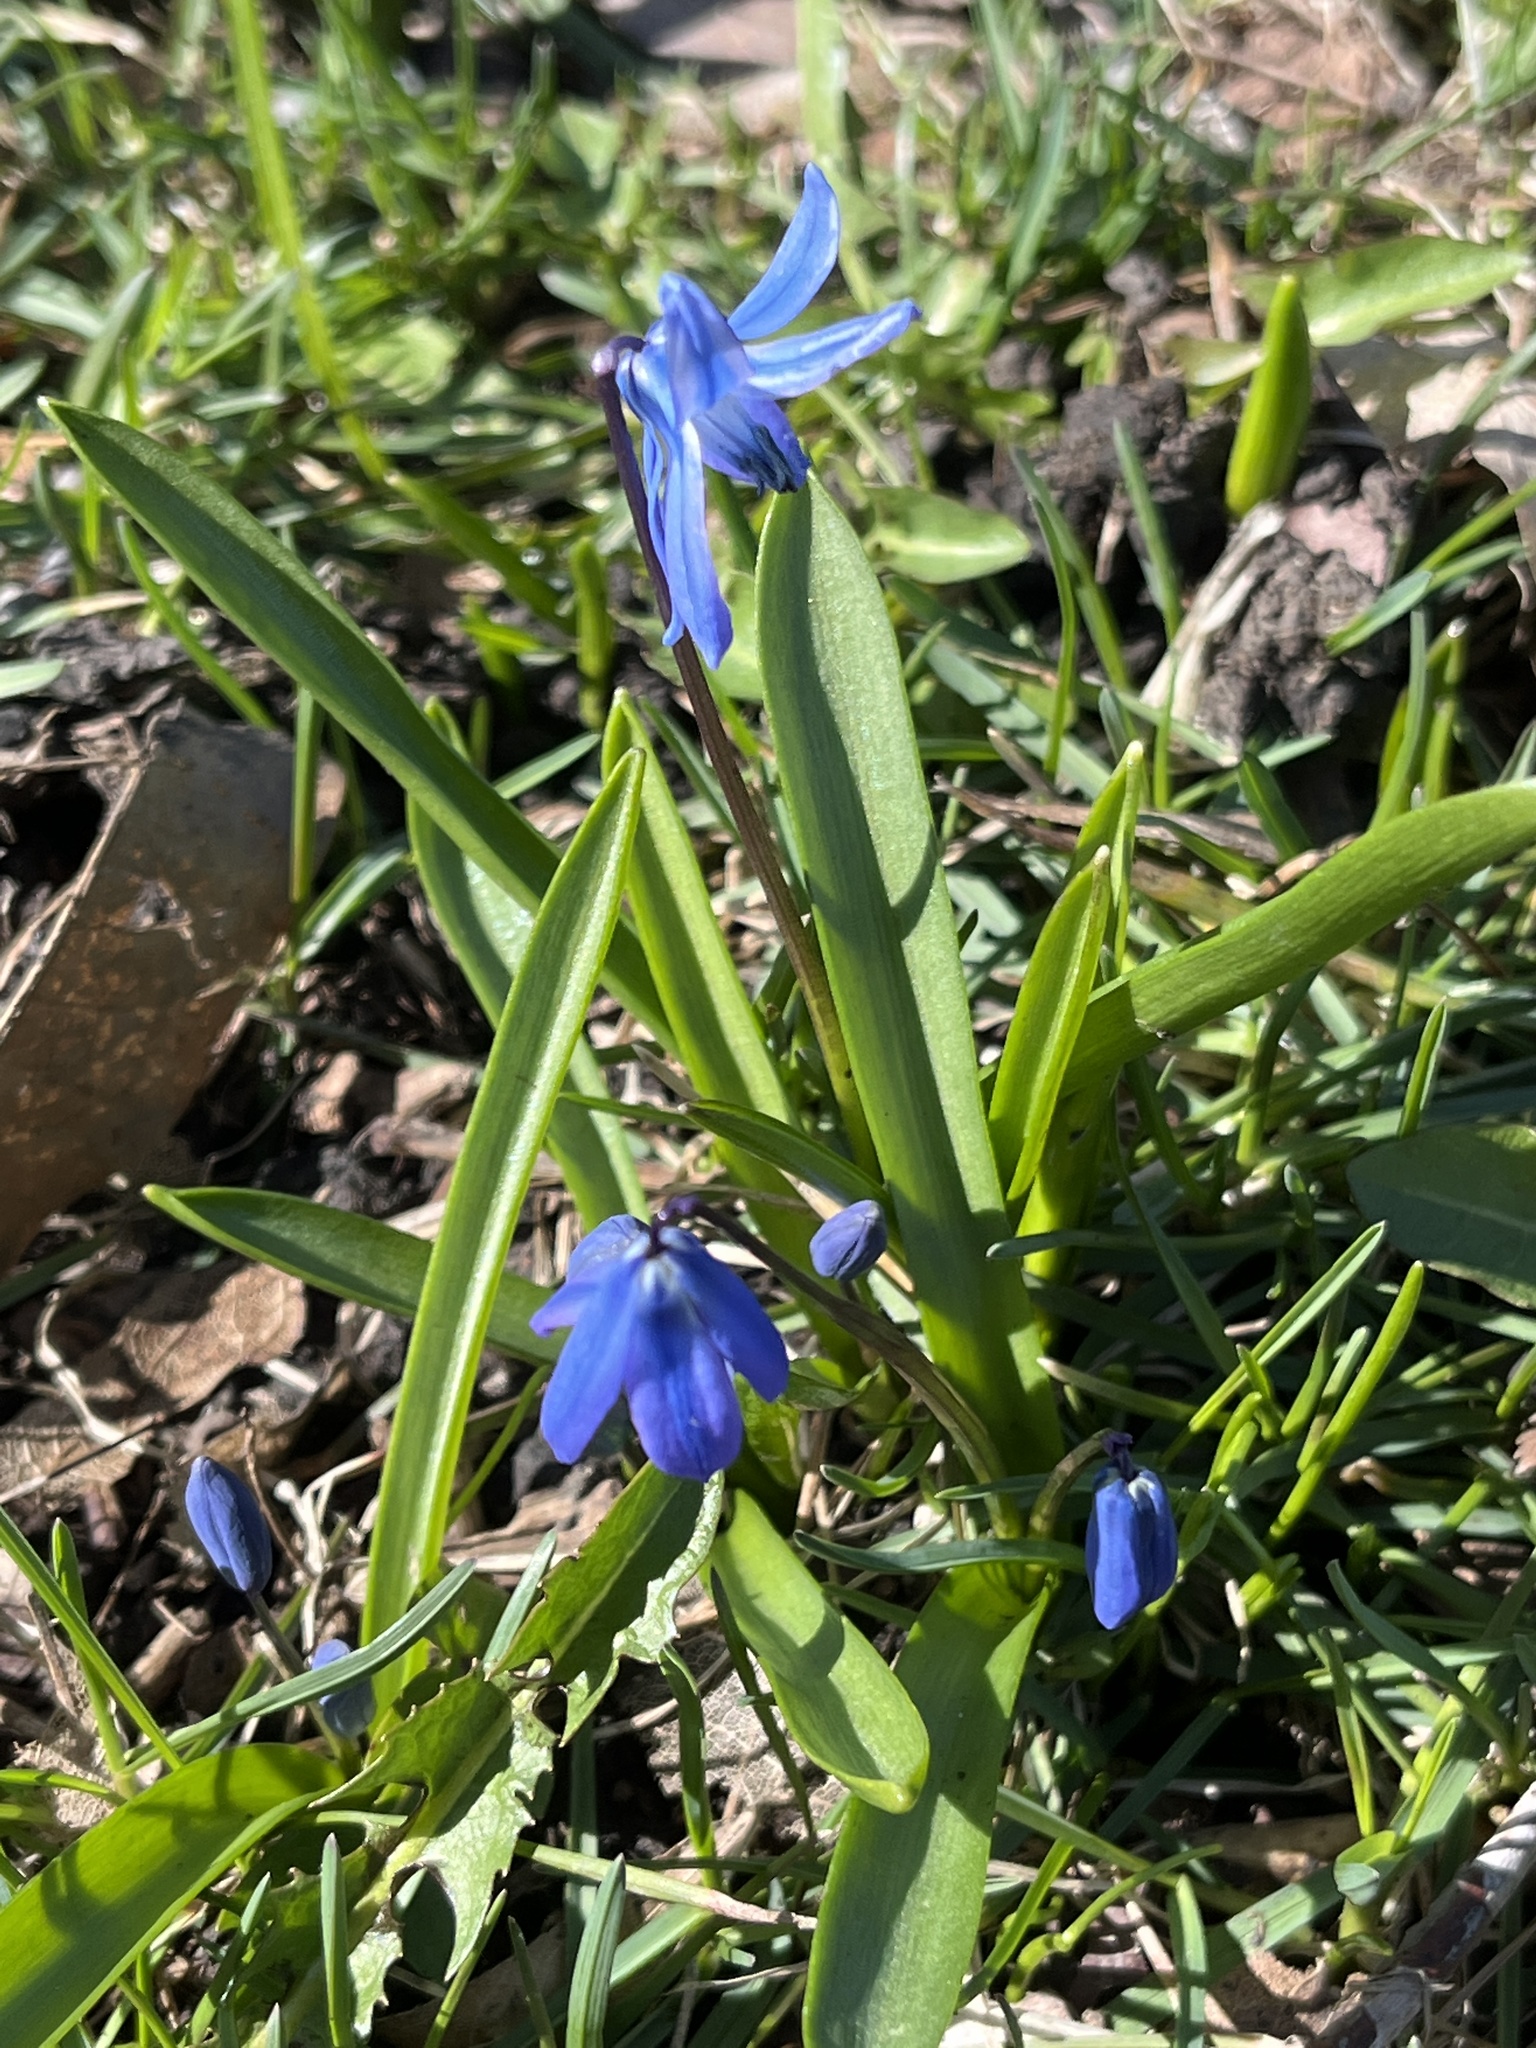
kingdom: Plantae
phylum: Tracheophyta
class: Liliopsida
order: Asparagales
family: Asparagaceae
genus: Scilla
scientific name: Scilla siberica
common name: Siberian squill
